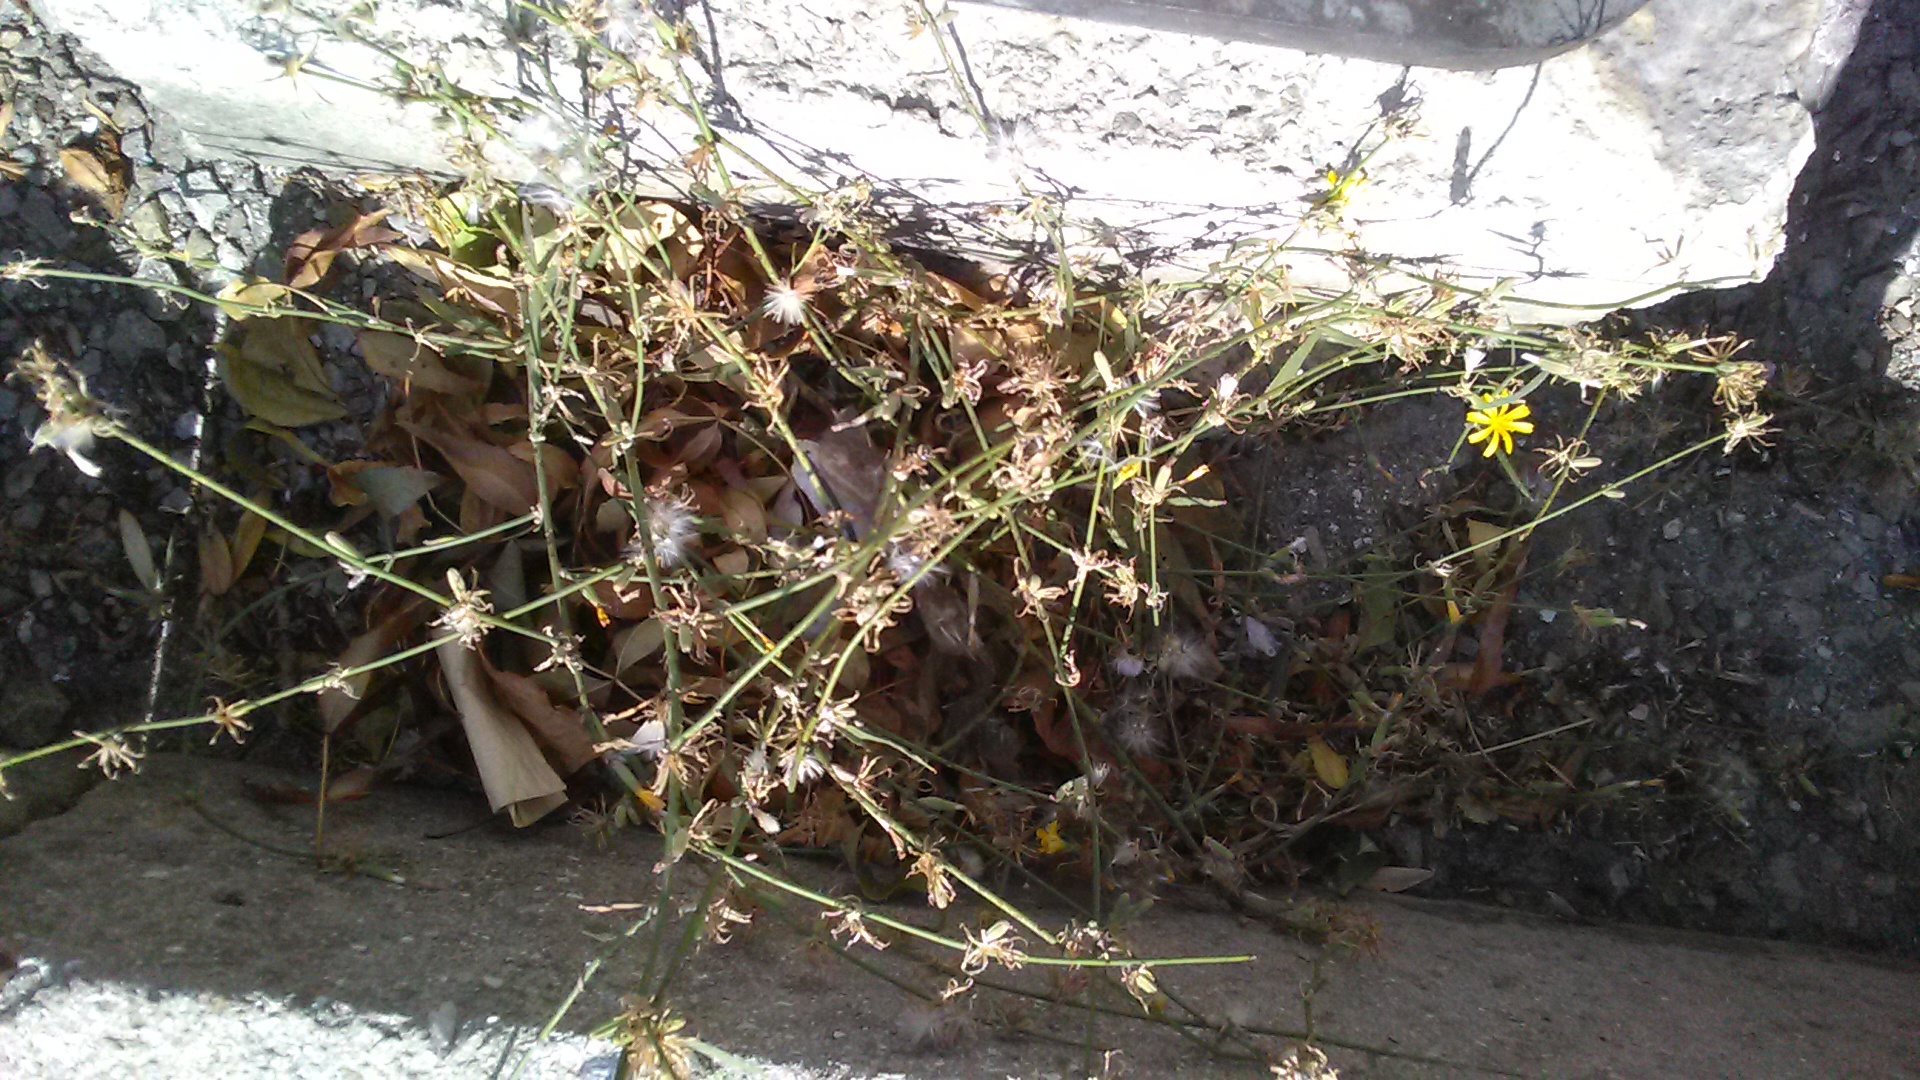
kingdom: Plantae
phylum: Tracheophyta
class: Magnoliopsida
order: Asterales
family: Asteraceae
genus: Chondrilla
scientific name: Chondrilla juncea
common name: Skeleton weed
